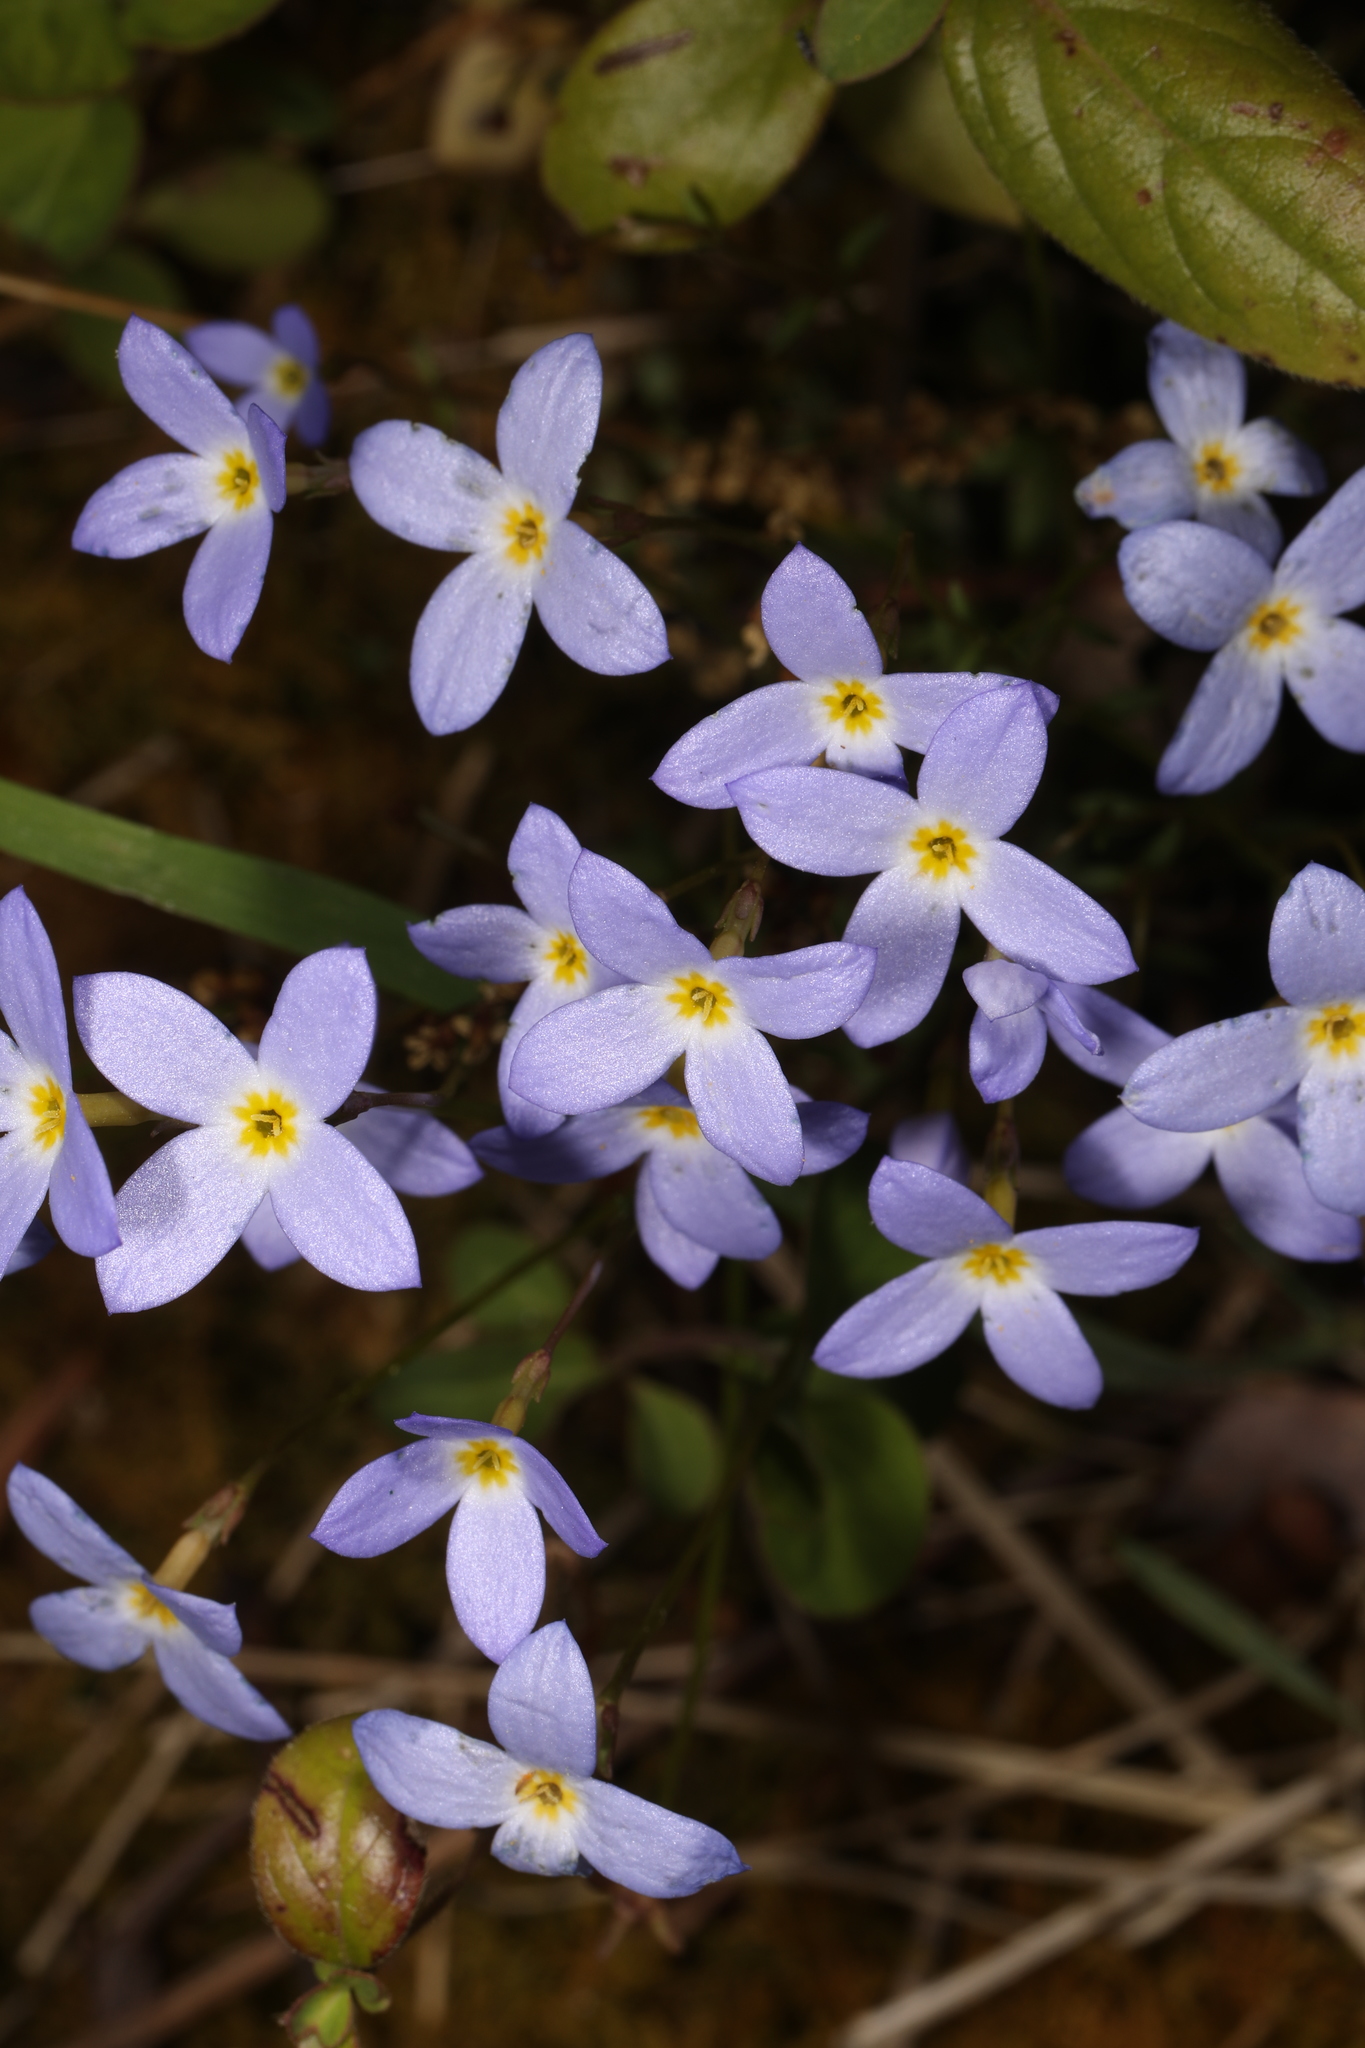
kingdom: Plantae
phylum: Tracheophyta
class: Magnoliopsida
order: Gentianales
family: Rubiaceae
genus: Houstonia
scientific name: Houstonia caerulea
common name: Bluets
